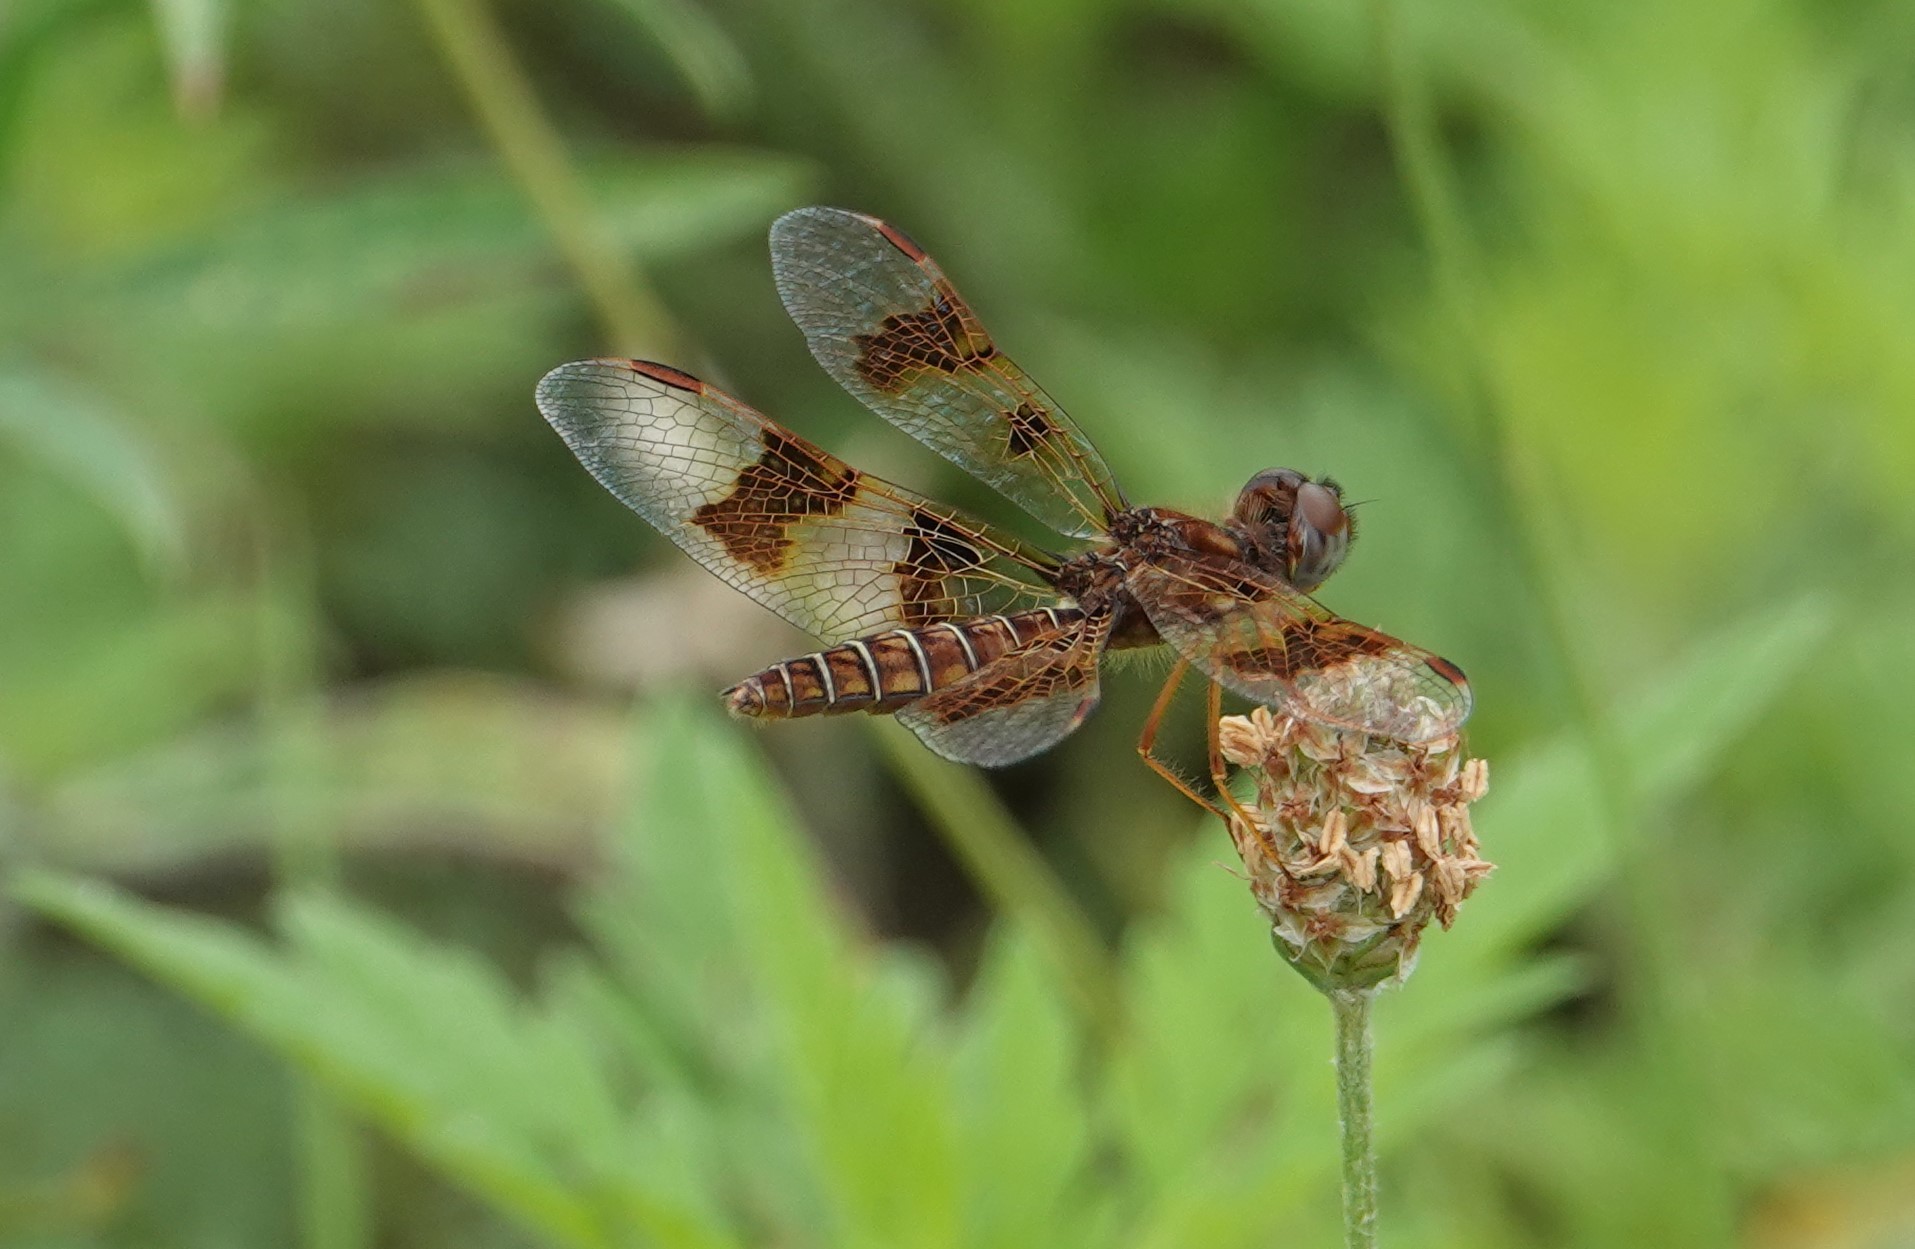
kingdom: Animalia
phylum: Arthropoda
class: Insecta
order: Odonata
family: Libellulidae
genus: Perithemis
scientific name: Perithemis tenera
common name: Eastern amberwing
